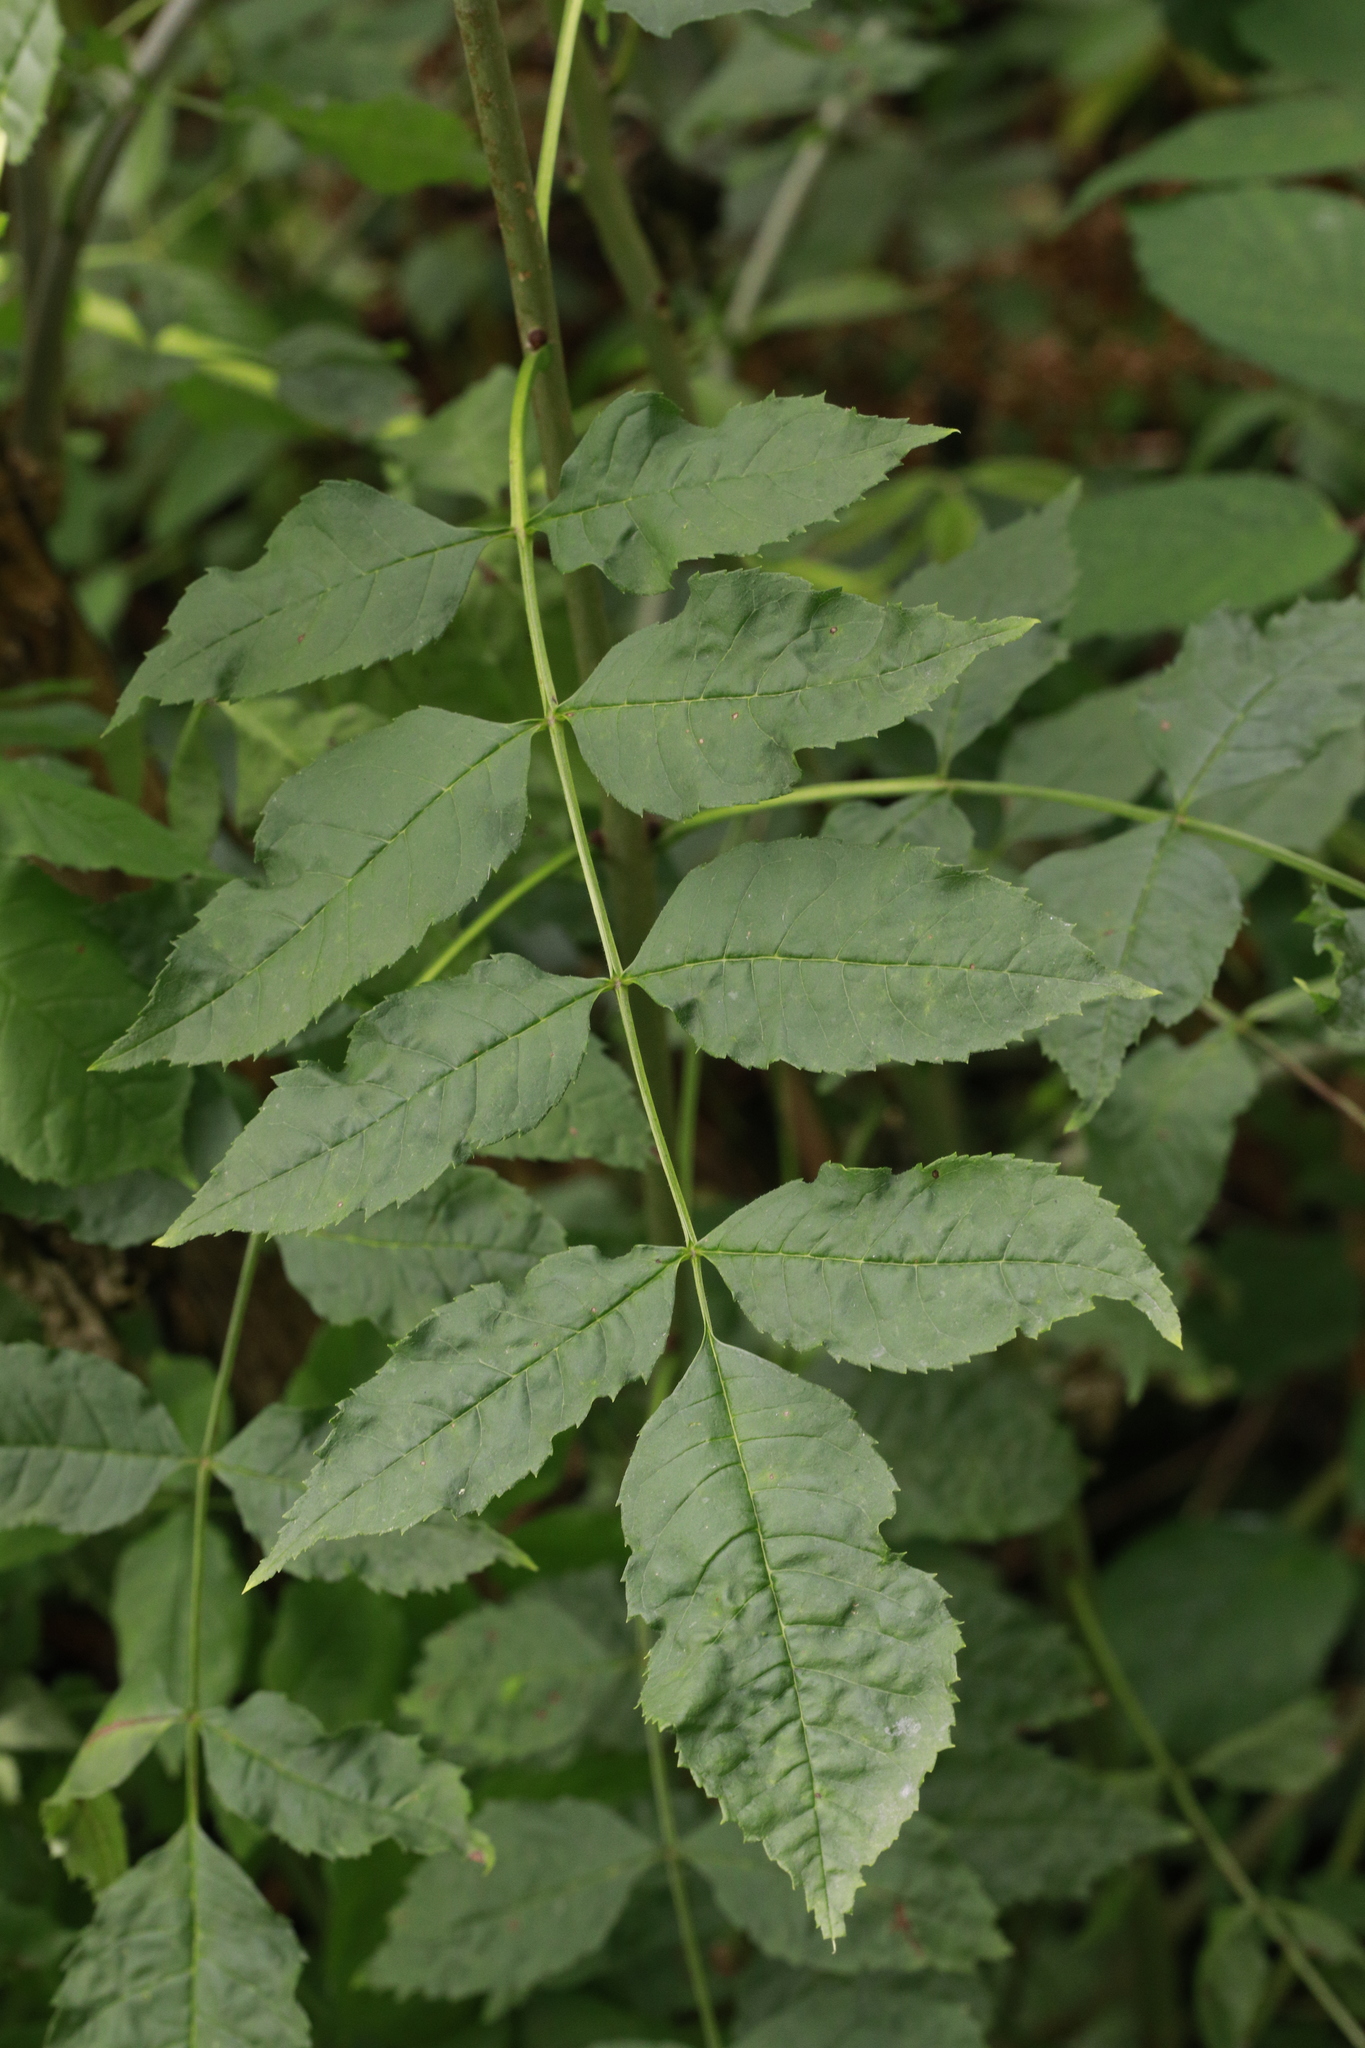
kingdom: Plantae
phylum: Tracheophyta
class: Magnoliopsida
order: Lamiales
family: Oleaceae
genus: Fraxinus
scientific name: Fraxinus excelsior
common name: European ash
